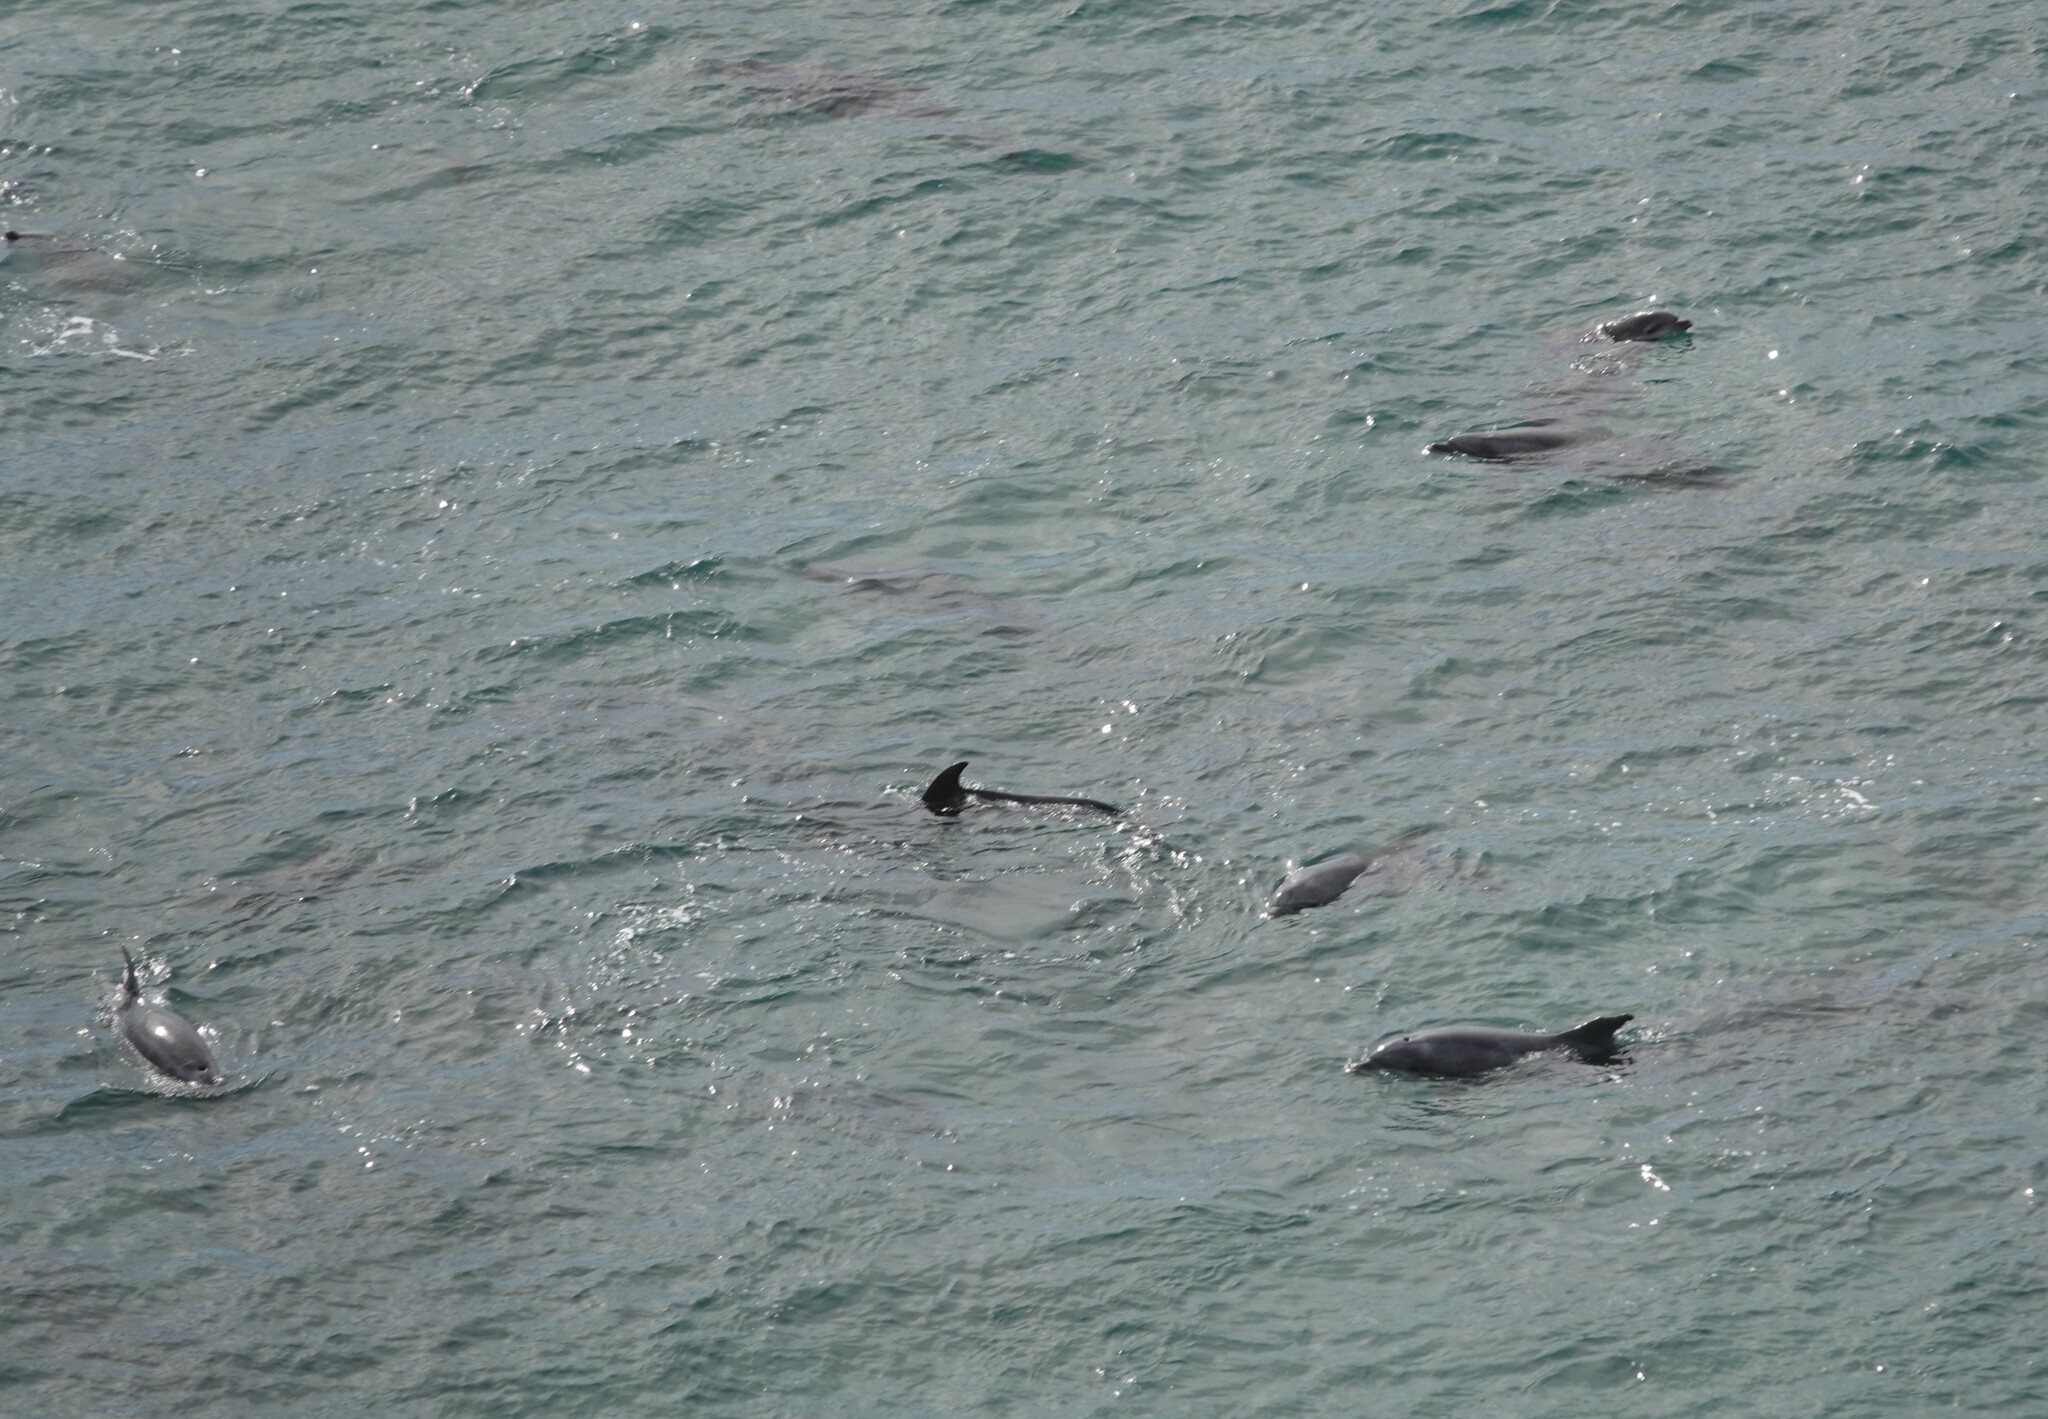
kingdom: Animalia
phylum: Chordata
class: Mammalia
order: Cetacea
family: Delphinidae
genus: Tursiops
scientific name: Tursiops truncatus
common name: Bottlenose dolphin
